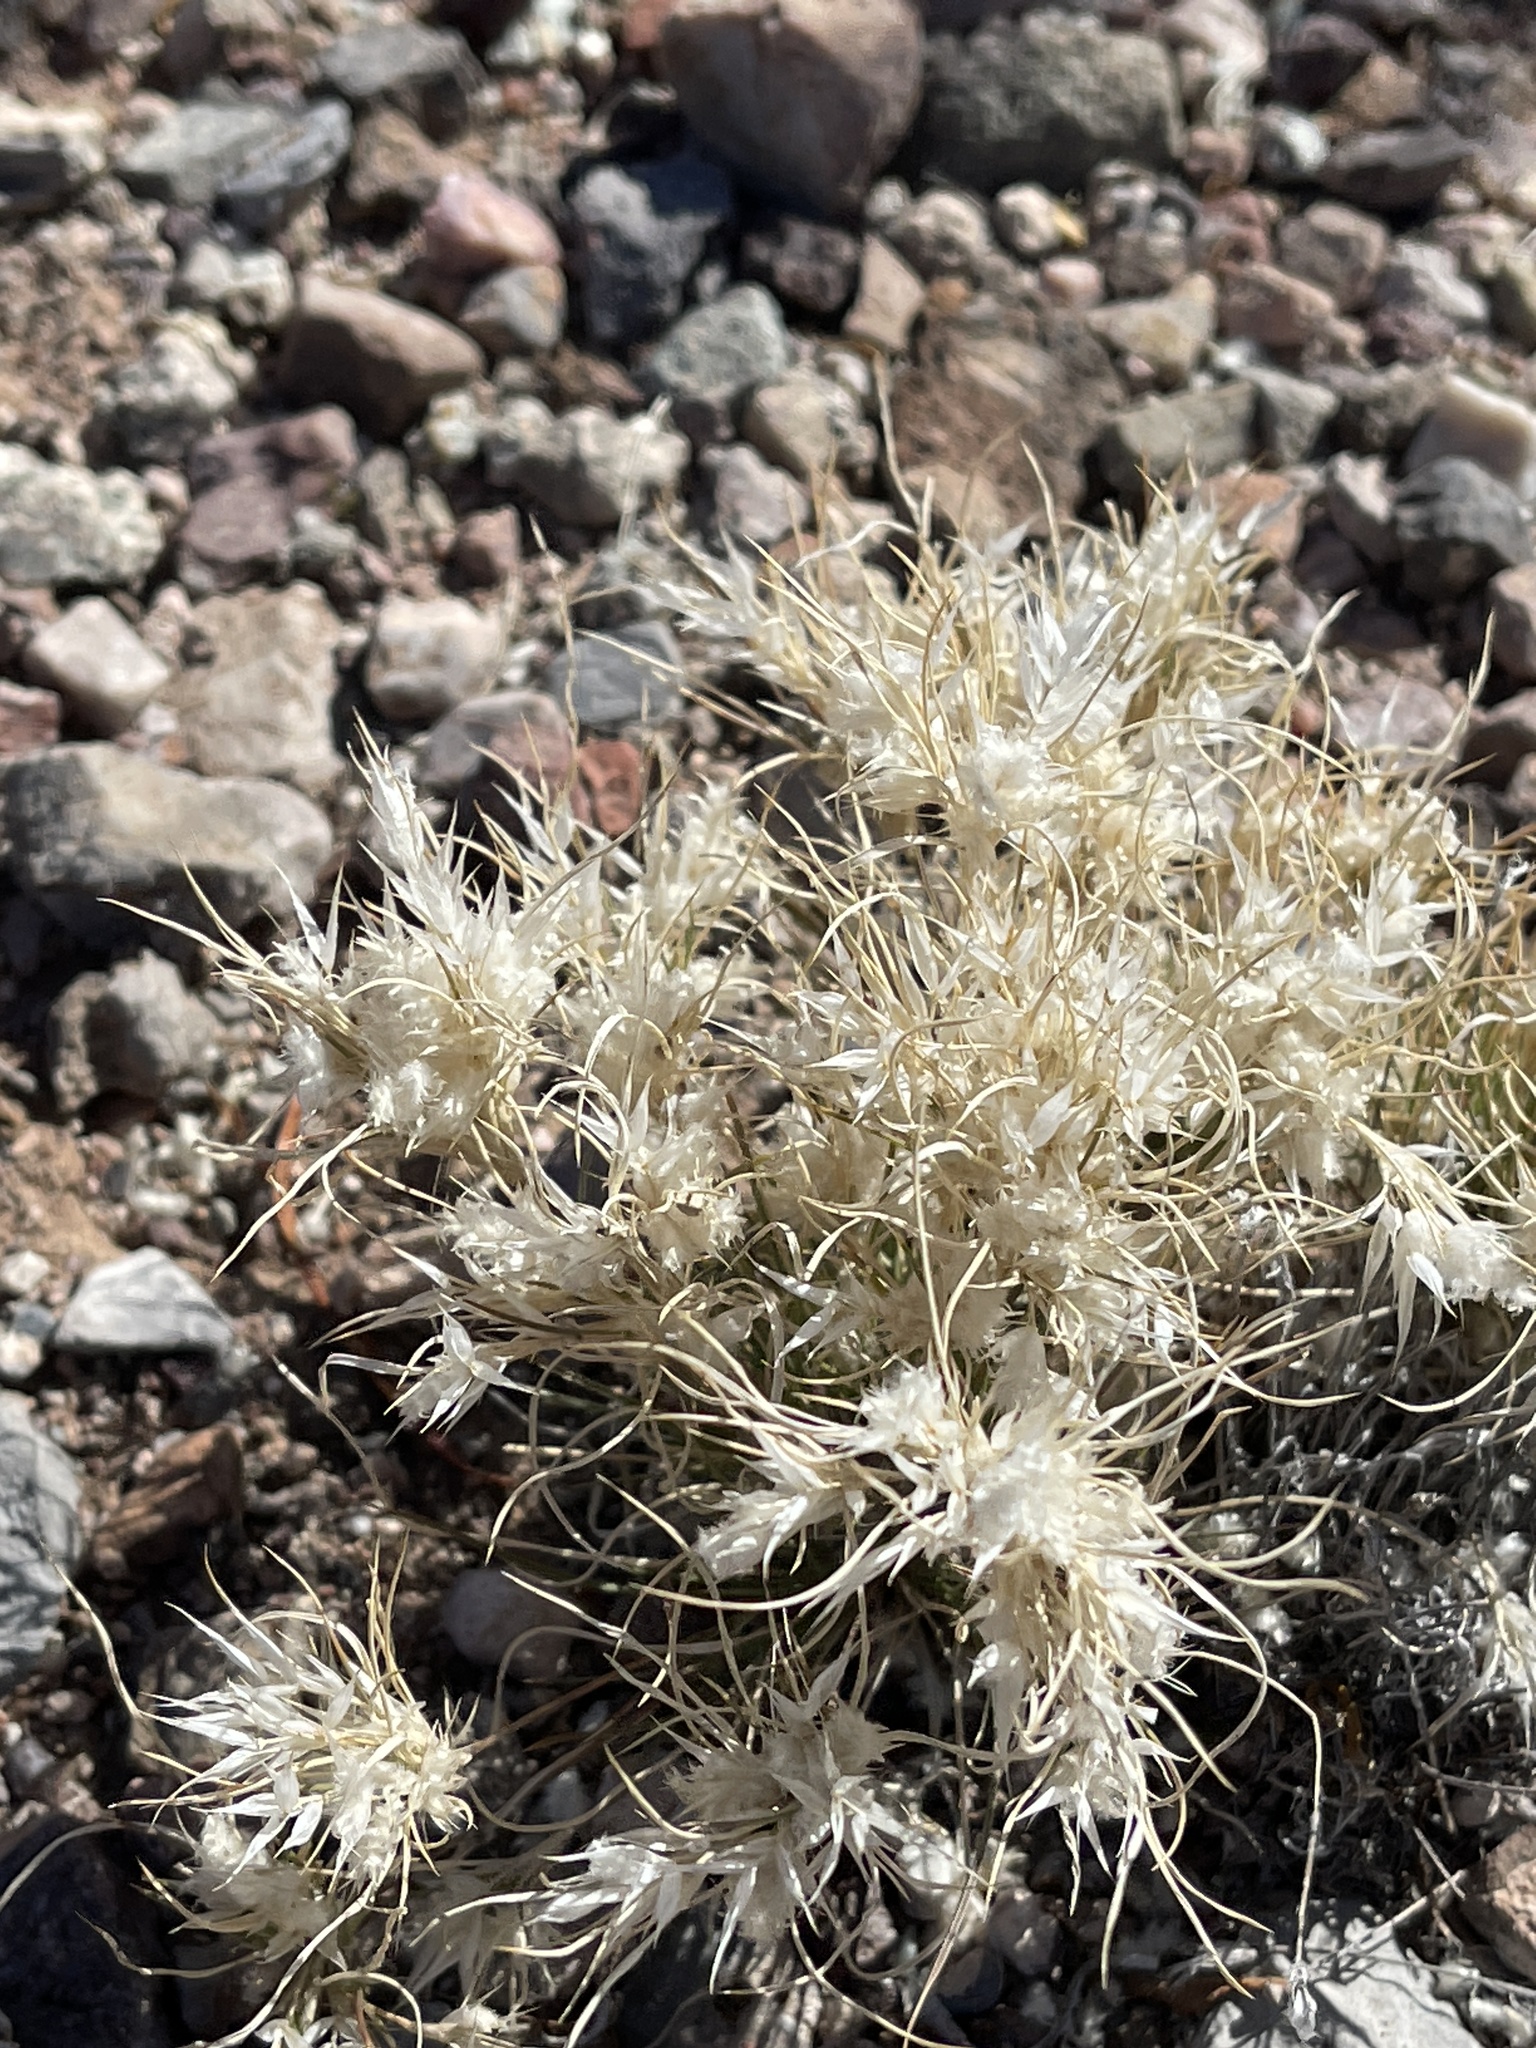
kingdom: Plantae
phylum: Tracheophyta
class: Liliopsida
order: Poales
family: Poaceae
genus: Dasyochloa
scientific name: Dasyochloa pulchella
